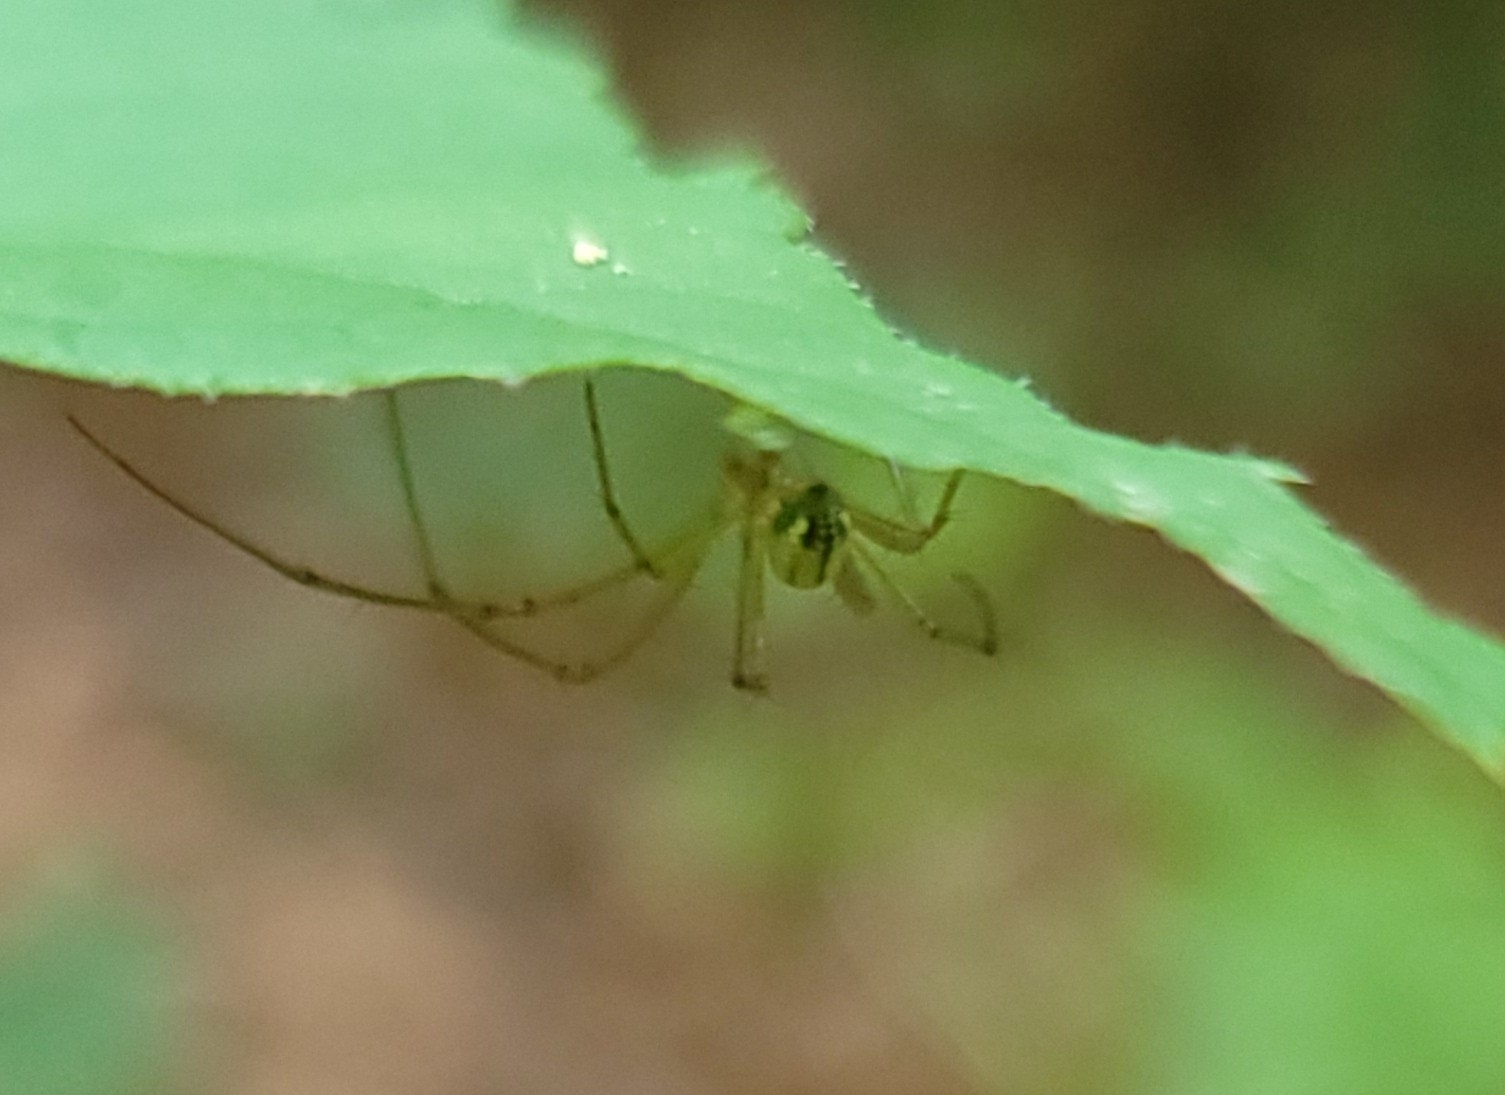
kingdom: Animalia
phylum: Arthropoda
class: Arachnida
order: Araneae
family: Tetragnathidae
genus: Leucauge
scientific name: Leucauge venusta
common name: Longjawed orb weavers
